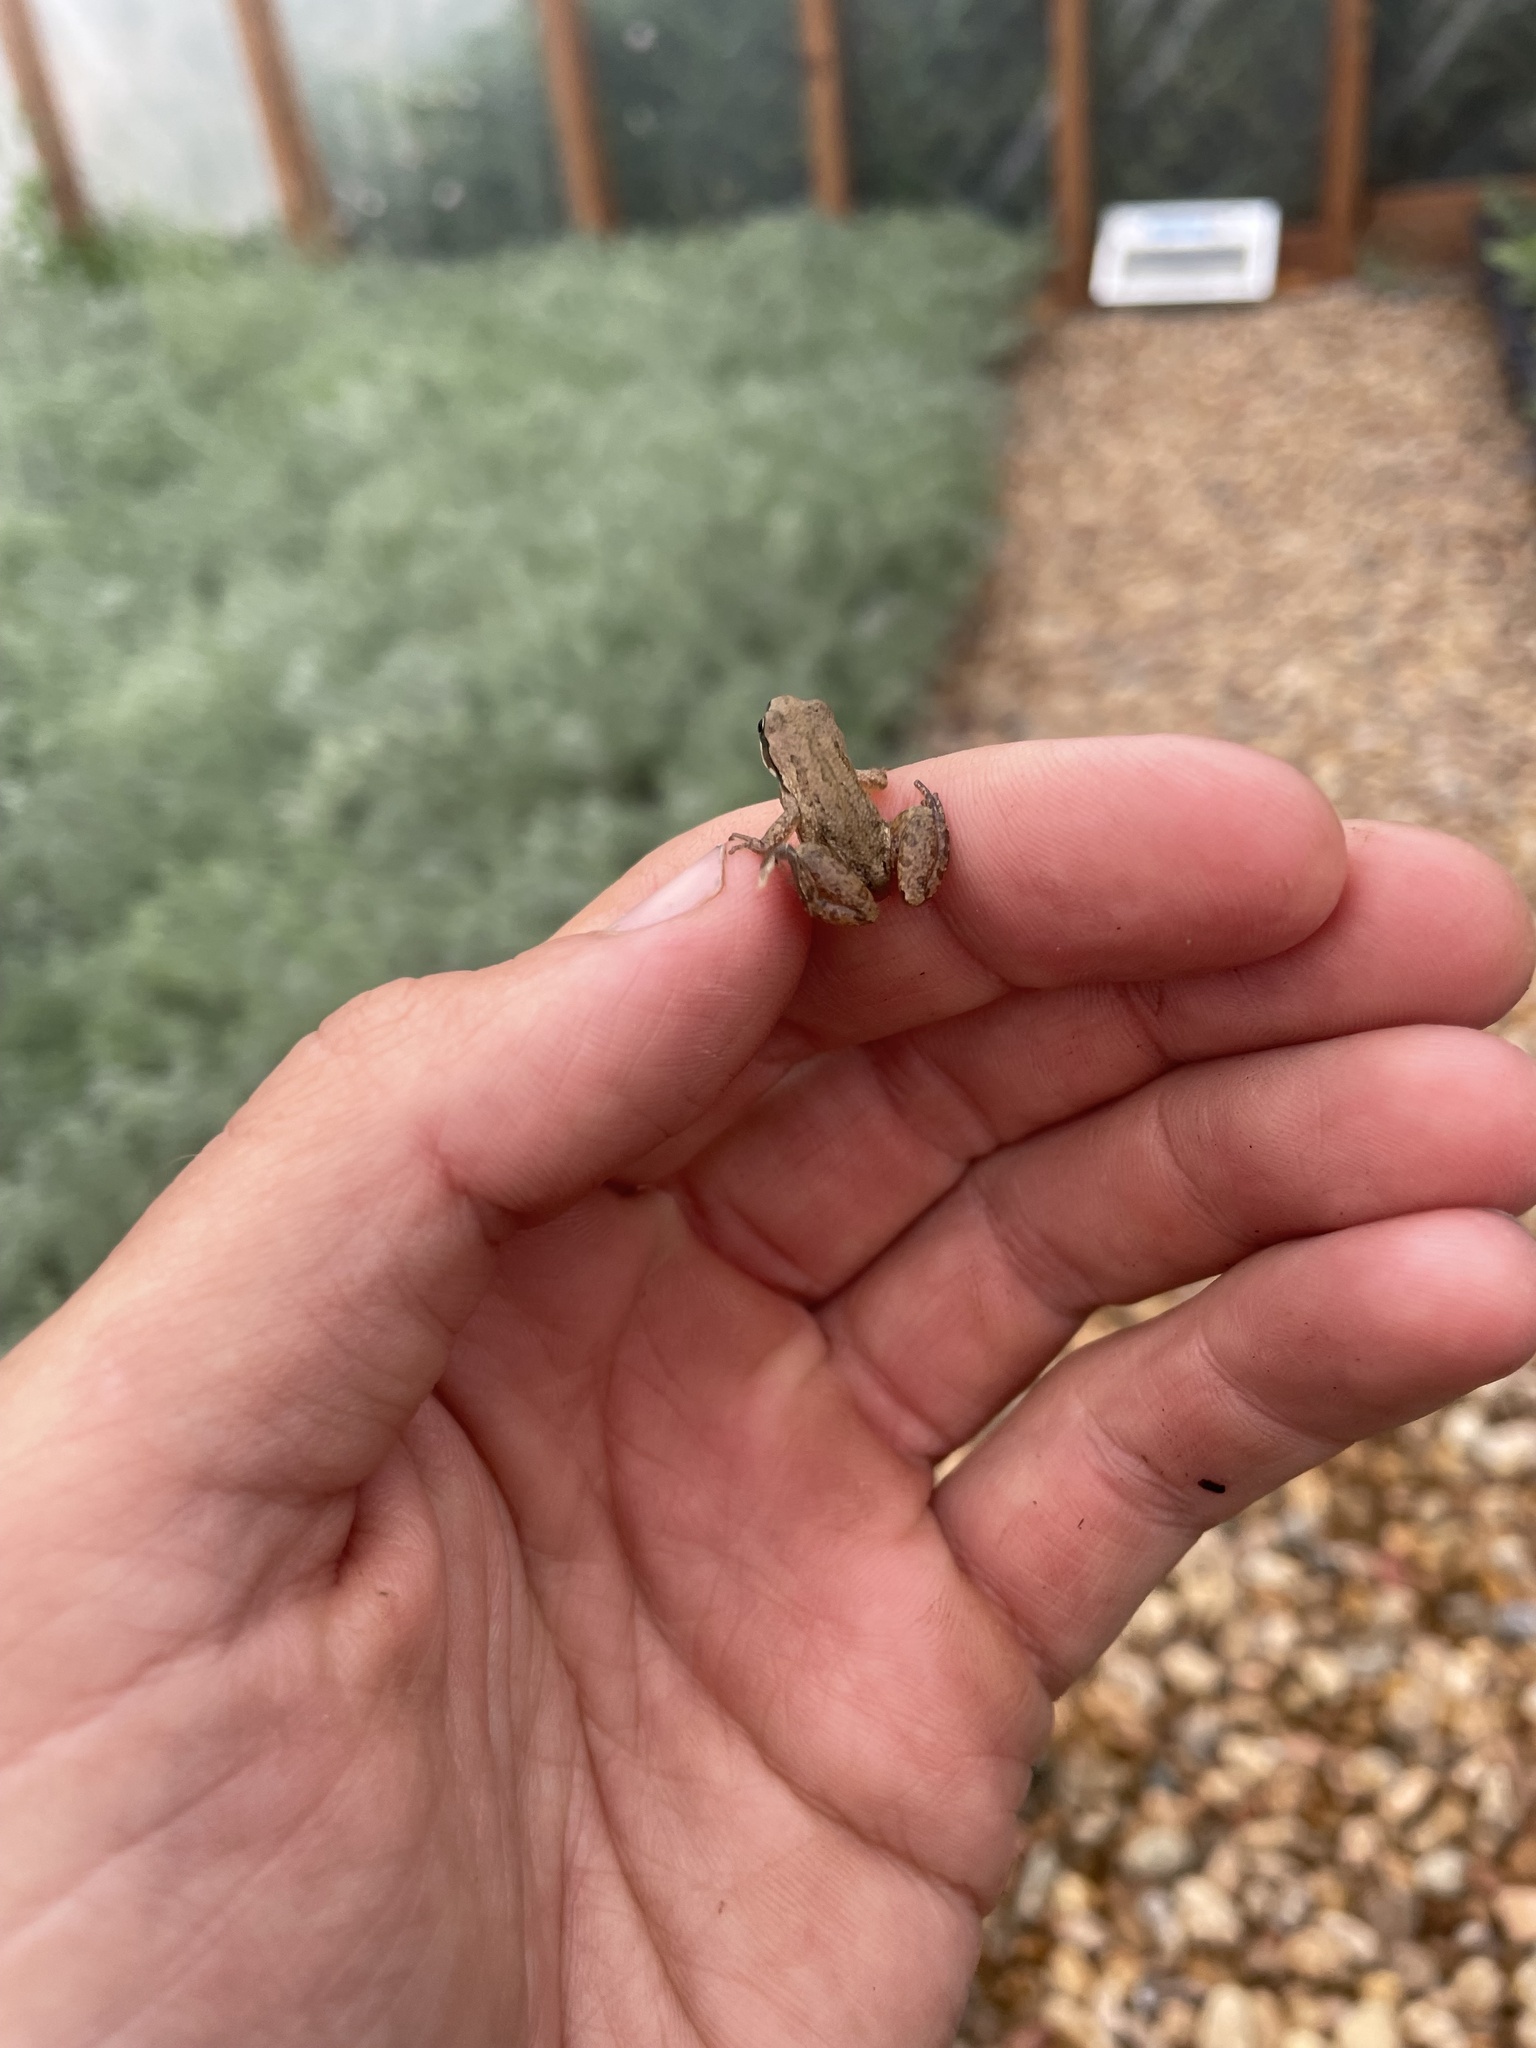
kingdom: Animalia
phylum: Chordata
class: Amphibia
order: Anura
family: Hylidae
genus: Pseudacris
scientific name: Pseudacris maculata
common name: Boreal chorus frog
